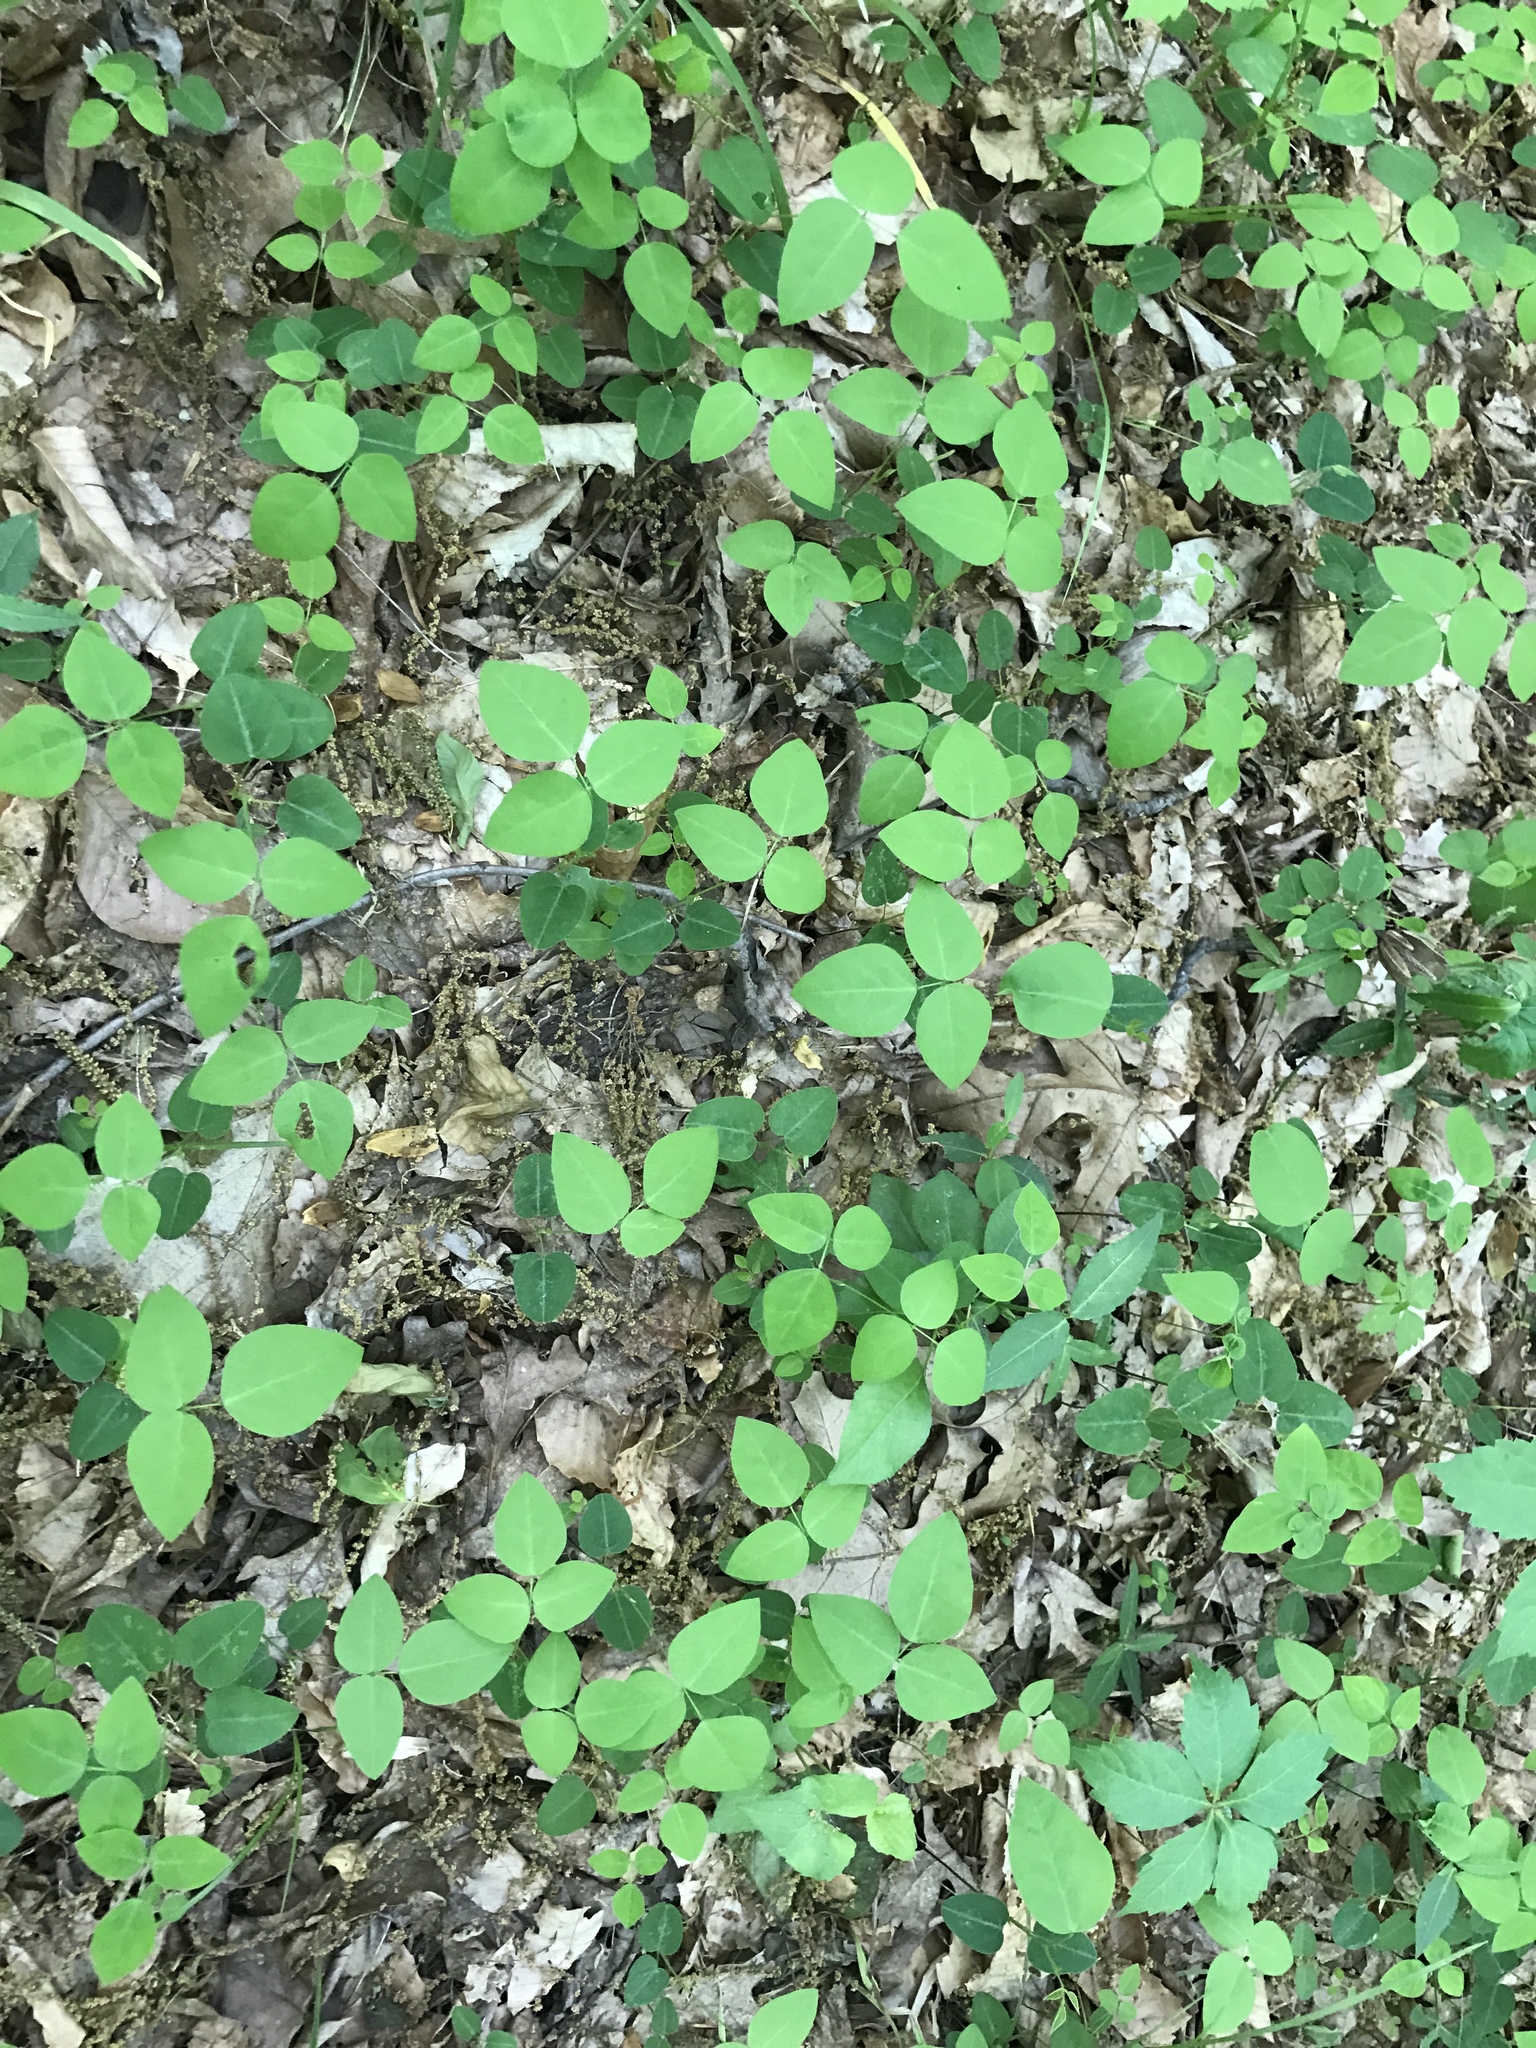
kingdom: Plantae
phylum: Tracheophyta
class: Magnoliopsida
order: Fabales
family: Fabaceae
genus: Amphicarpaea
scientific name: Amphicarpaea bracteata
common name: American hog peanut
